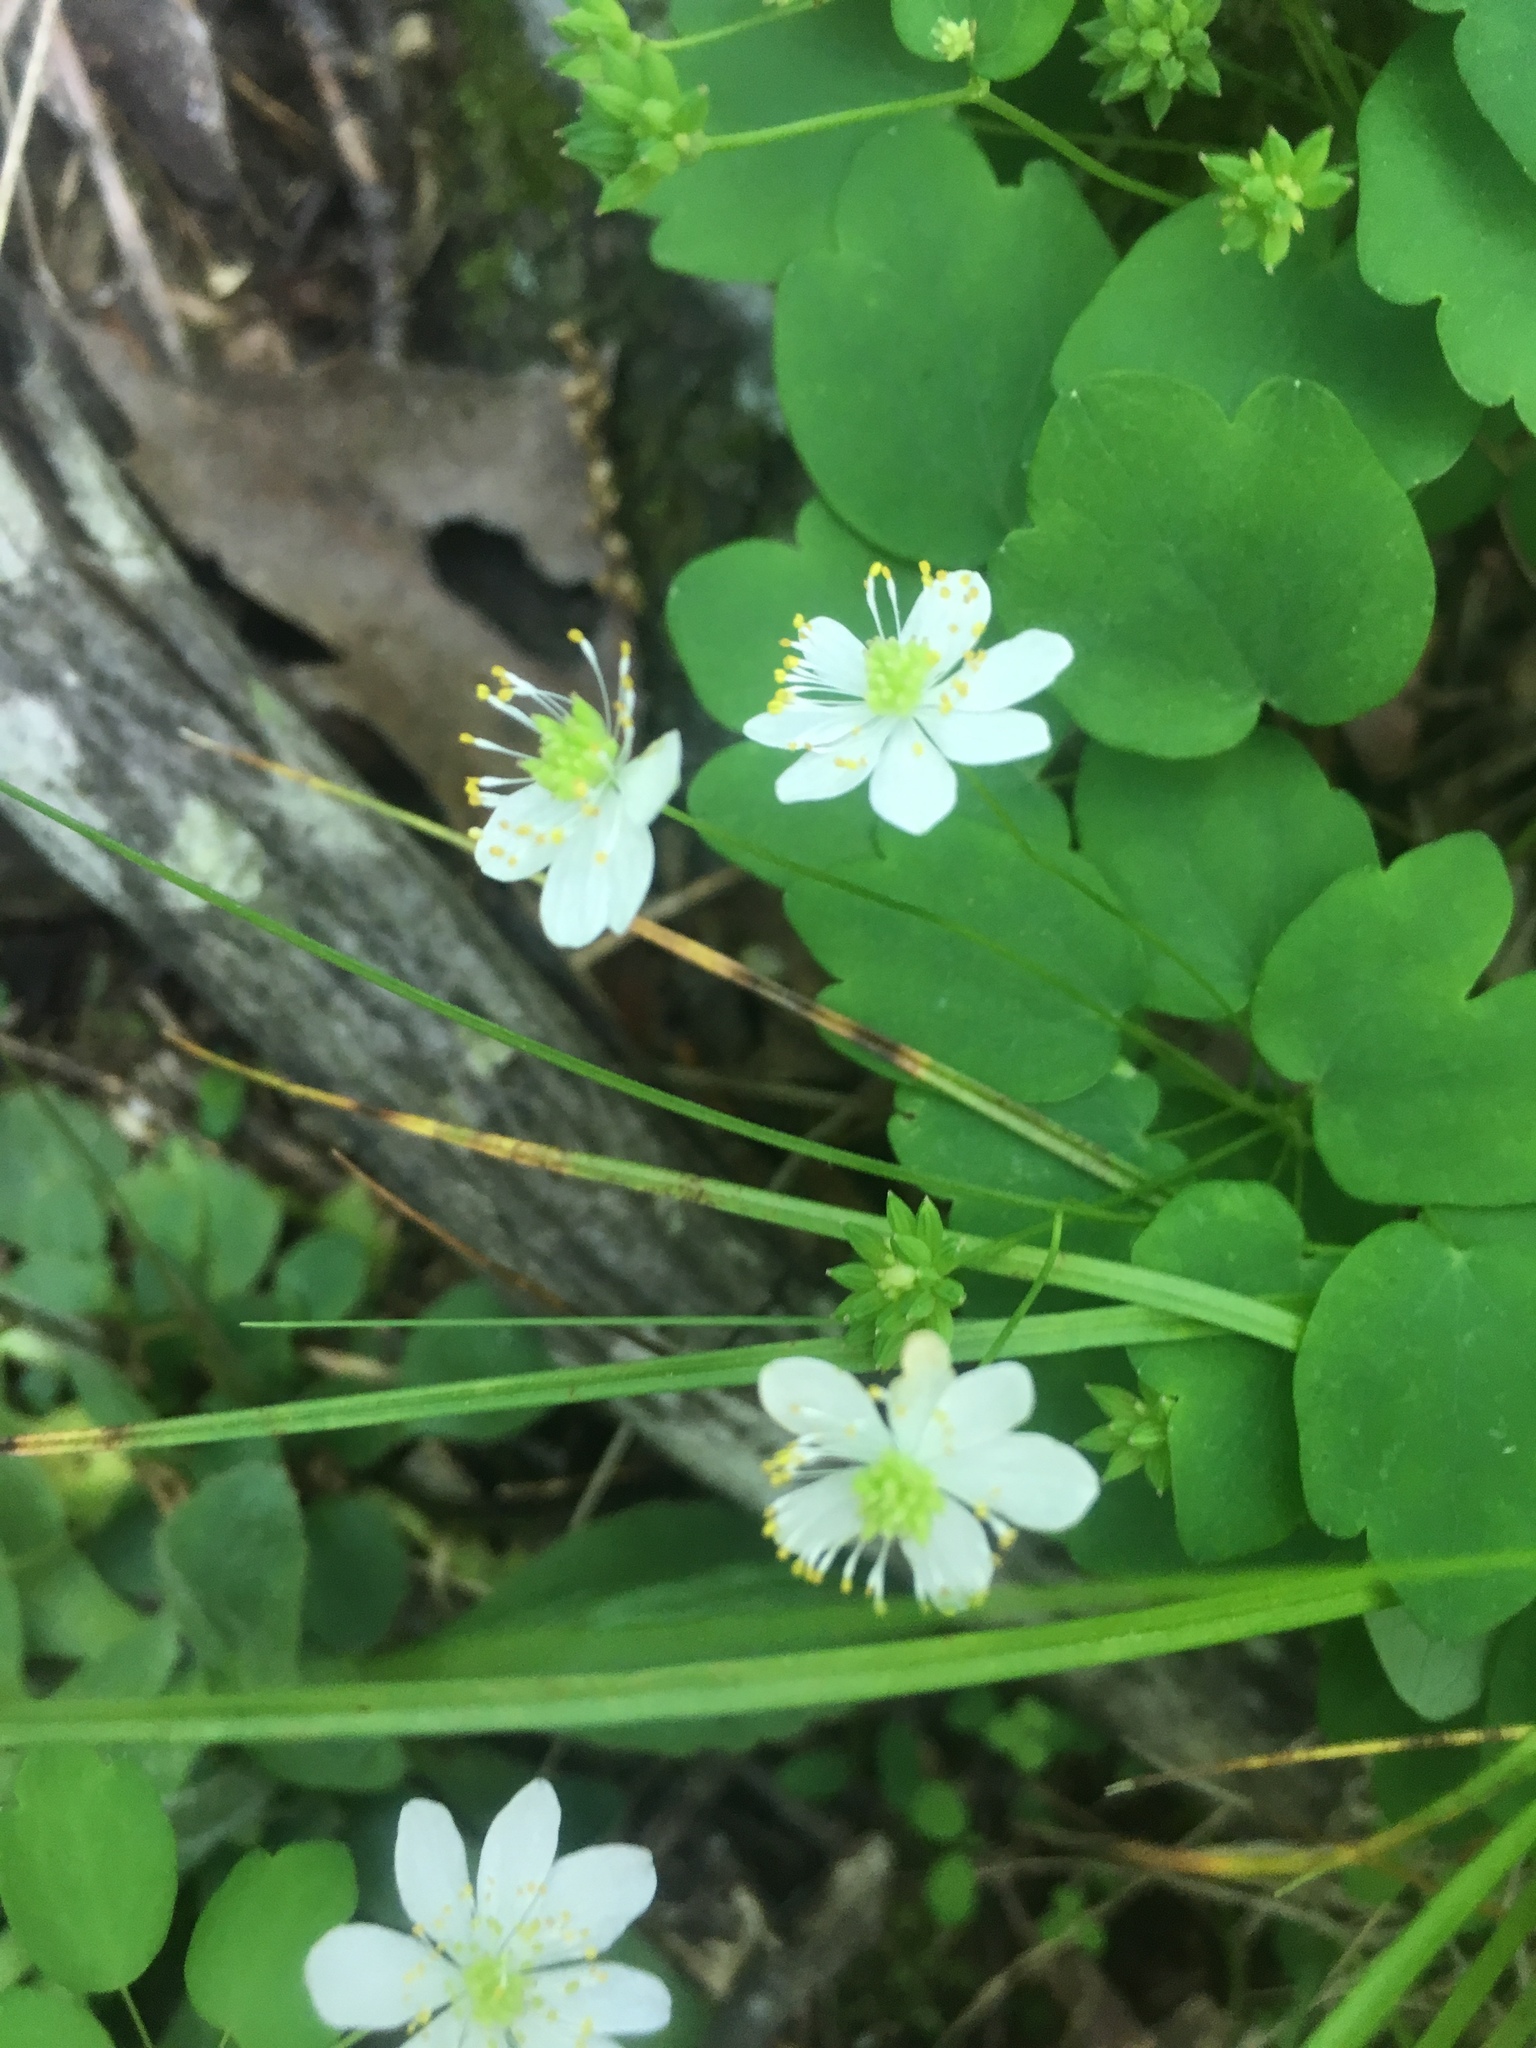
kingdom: Plantae
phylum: Tracheophyta
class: Magnoliopsida
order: Ranunculales
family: Ranunculaceae
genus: Thalictrum
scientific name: Thalictrum thalictroides
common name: Rue-anemone
